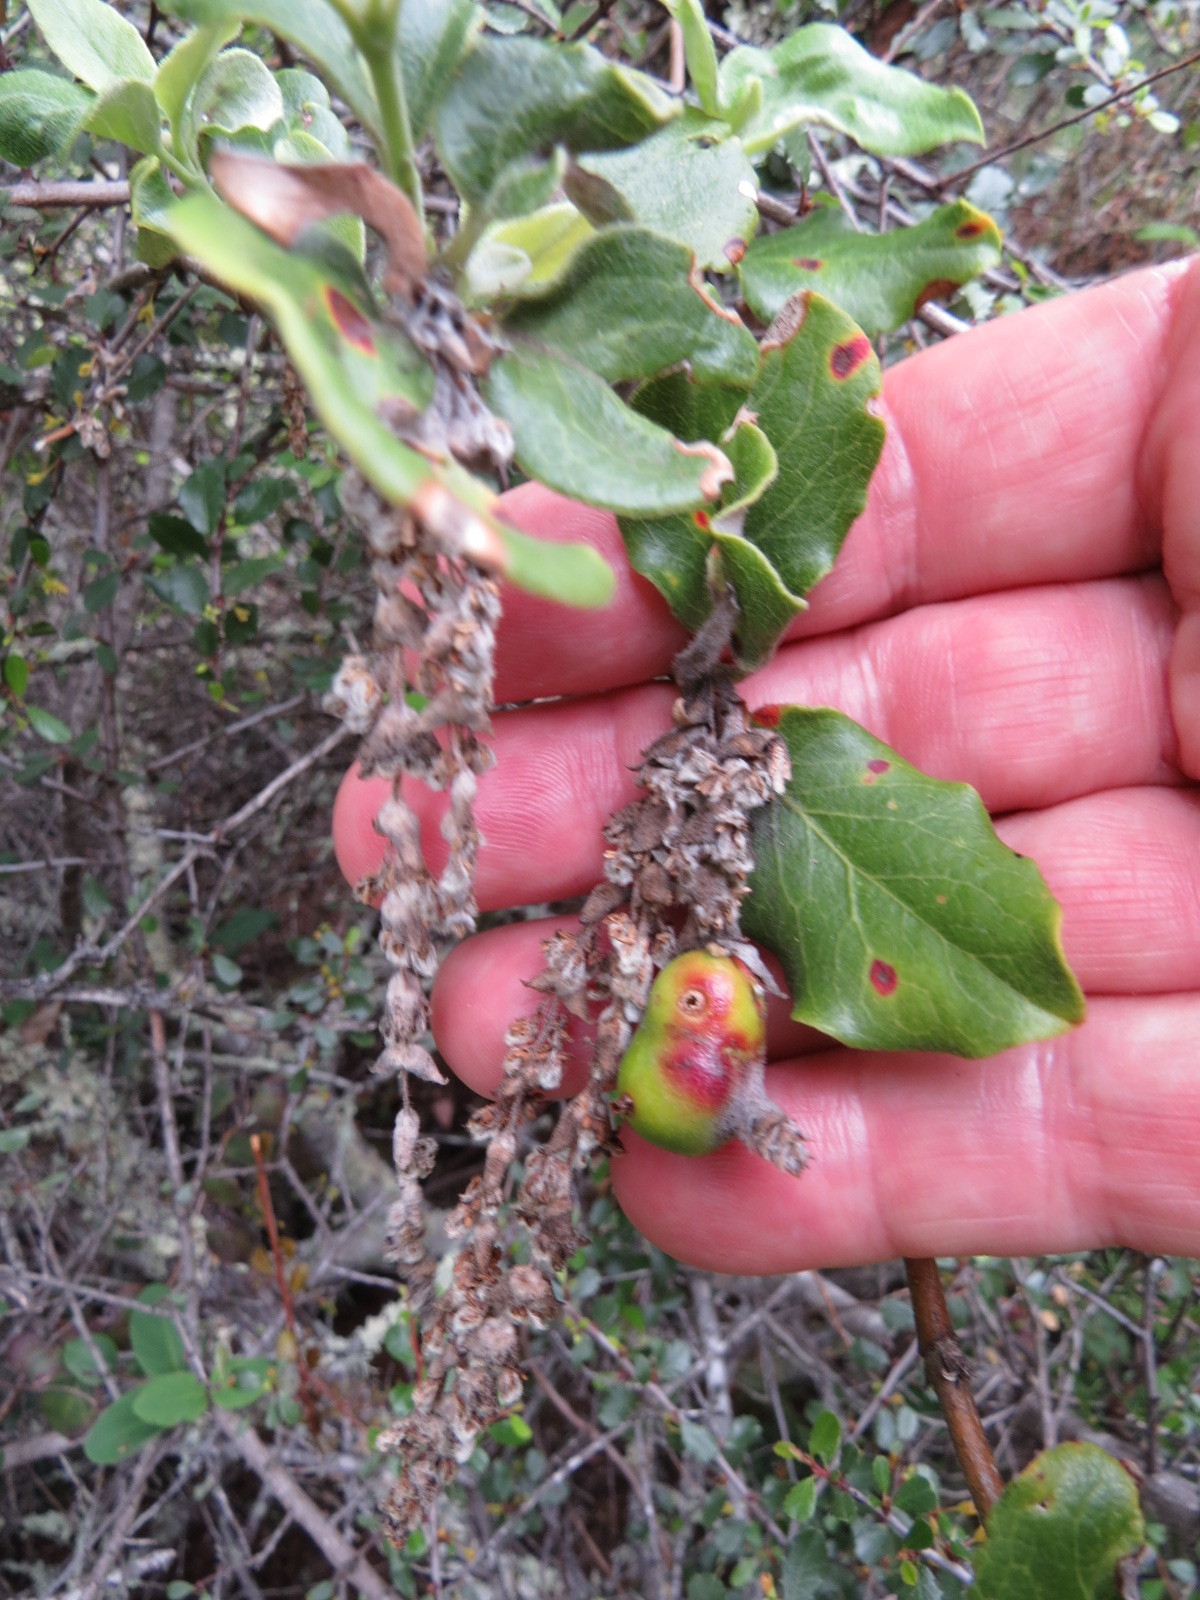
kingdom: Animalia
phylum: Arthropoda
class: Insecta
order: Diptera
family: Cecidomyiidae
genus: Asphondylia
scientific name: Asphondylia garryae
